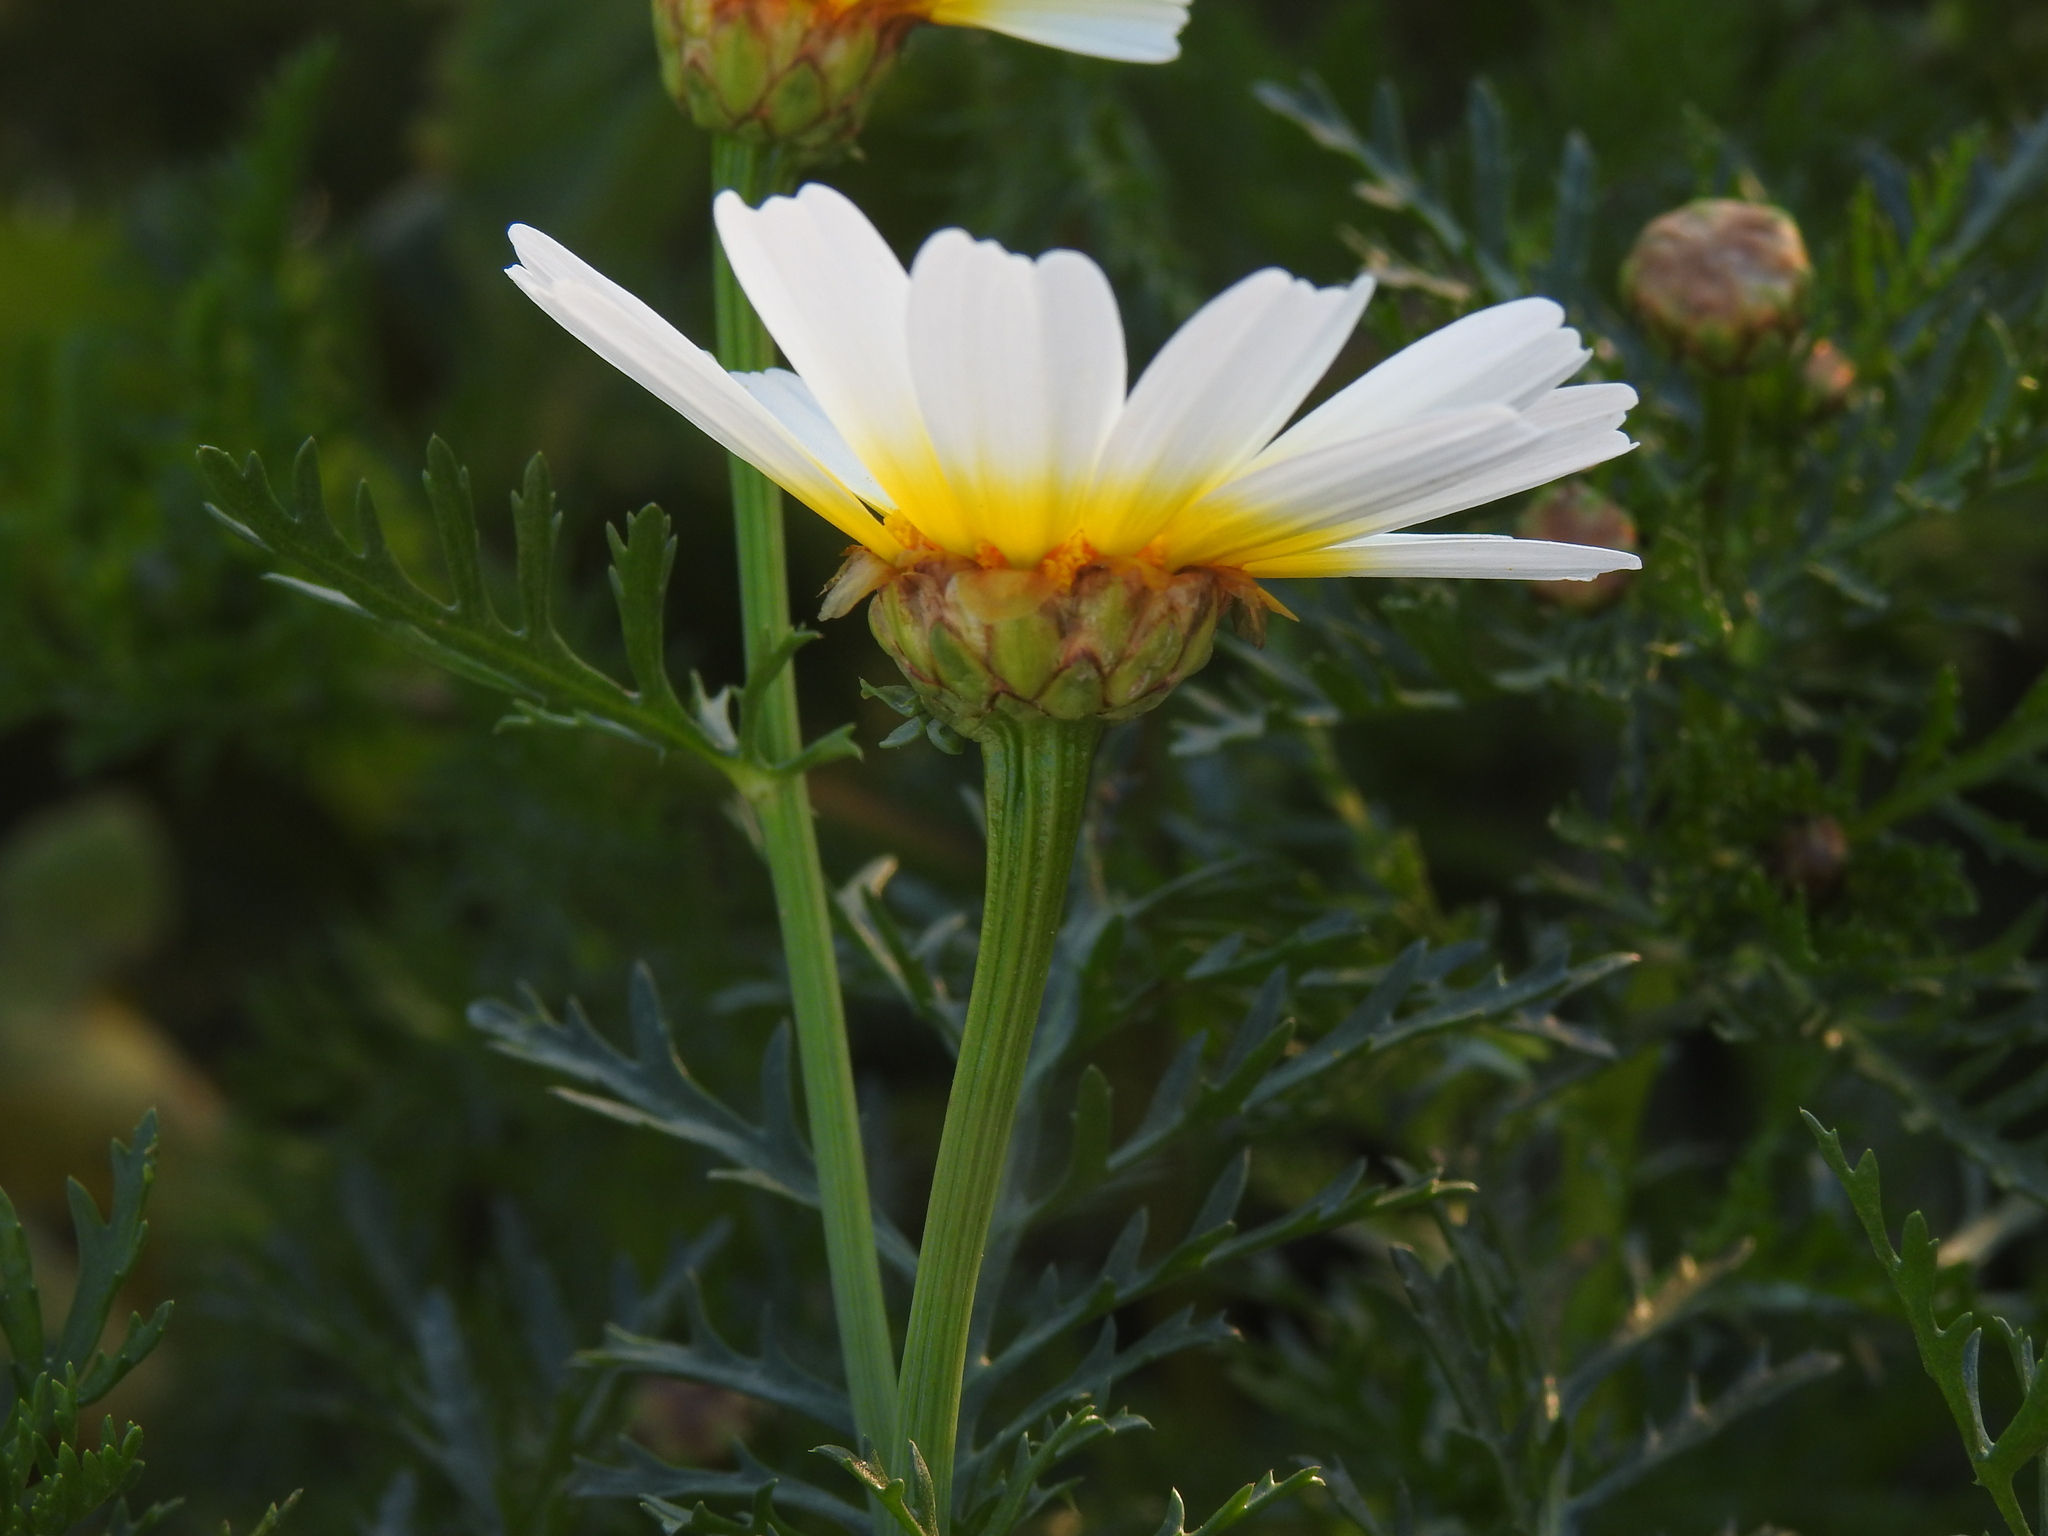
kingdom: Plantae
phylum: Tracheophyta
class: Magnoliopsida
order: Asterales
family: Asteraceae
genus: Glebionis
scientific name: Glebionis coronaria
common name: Crowndaisy
